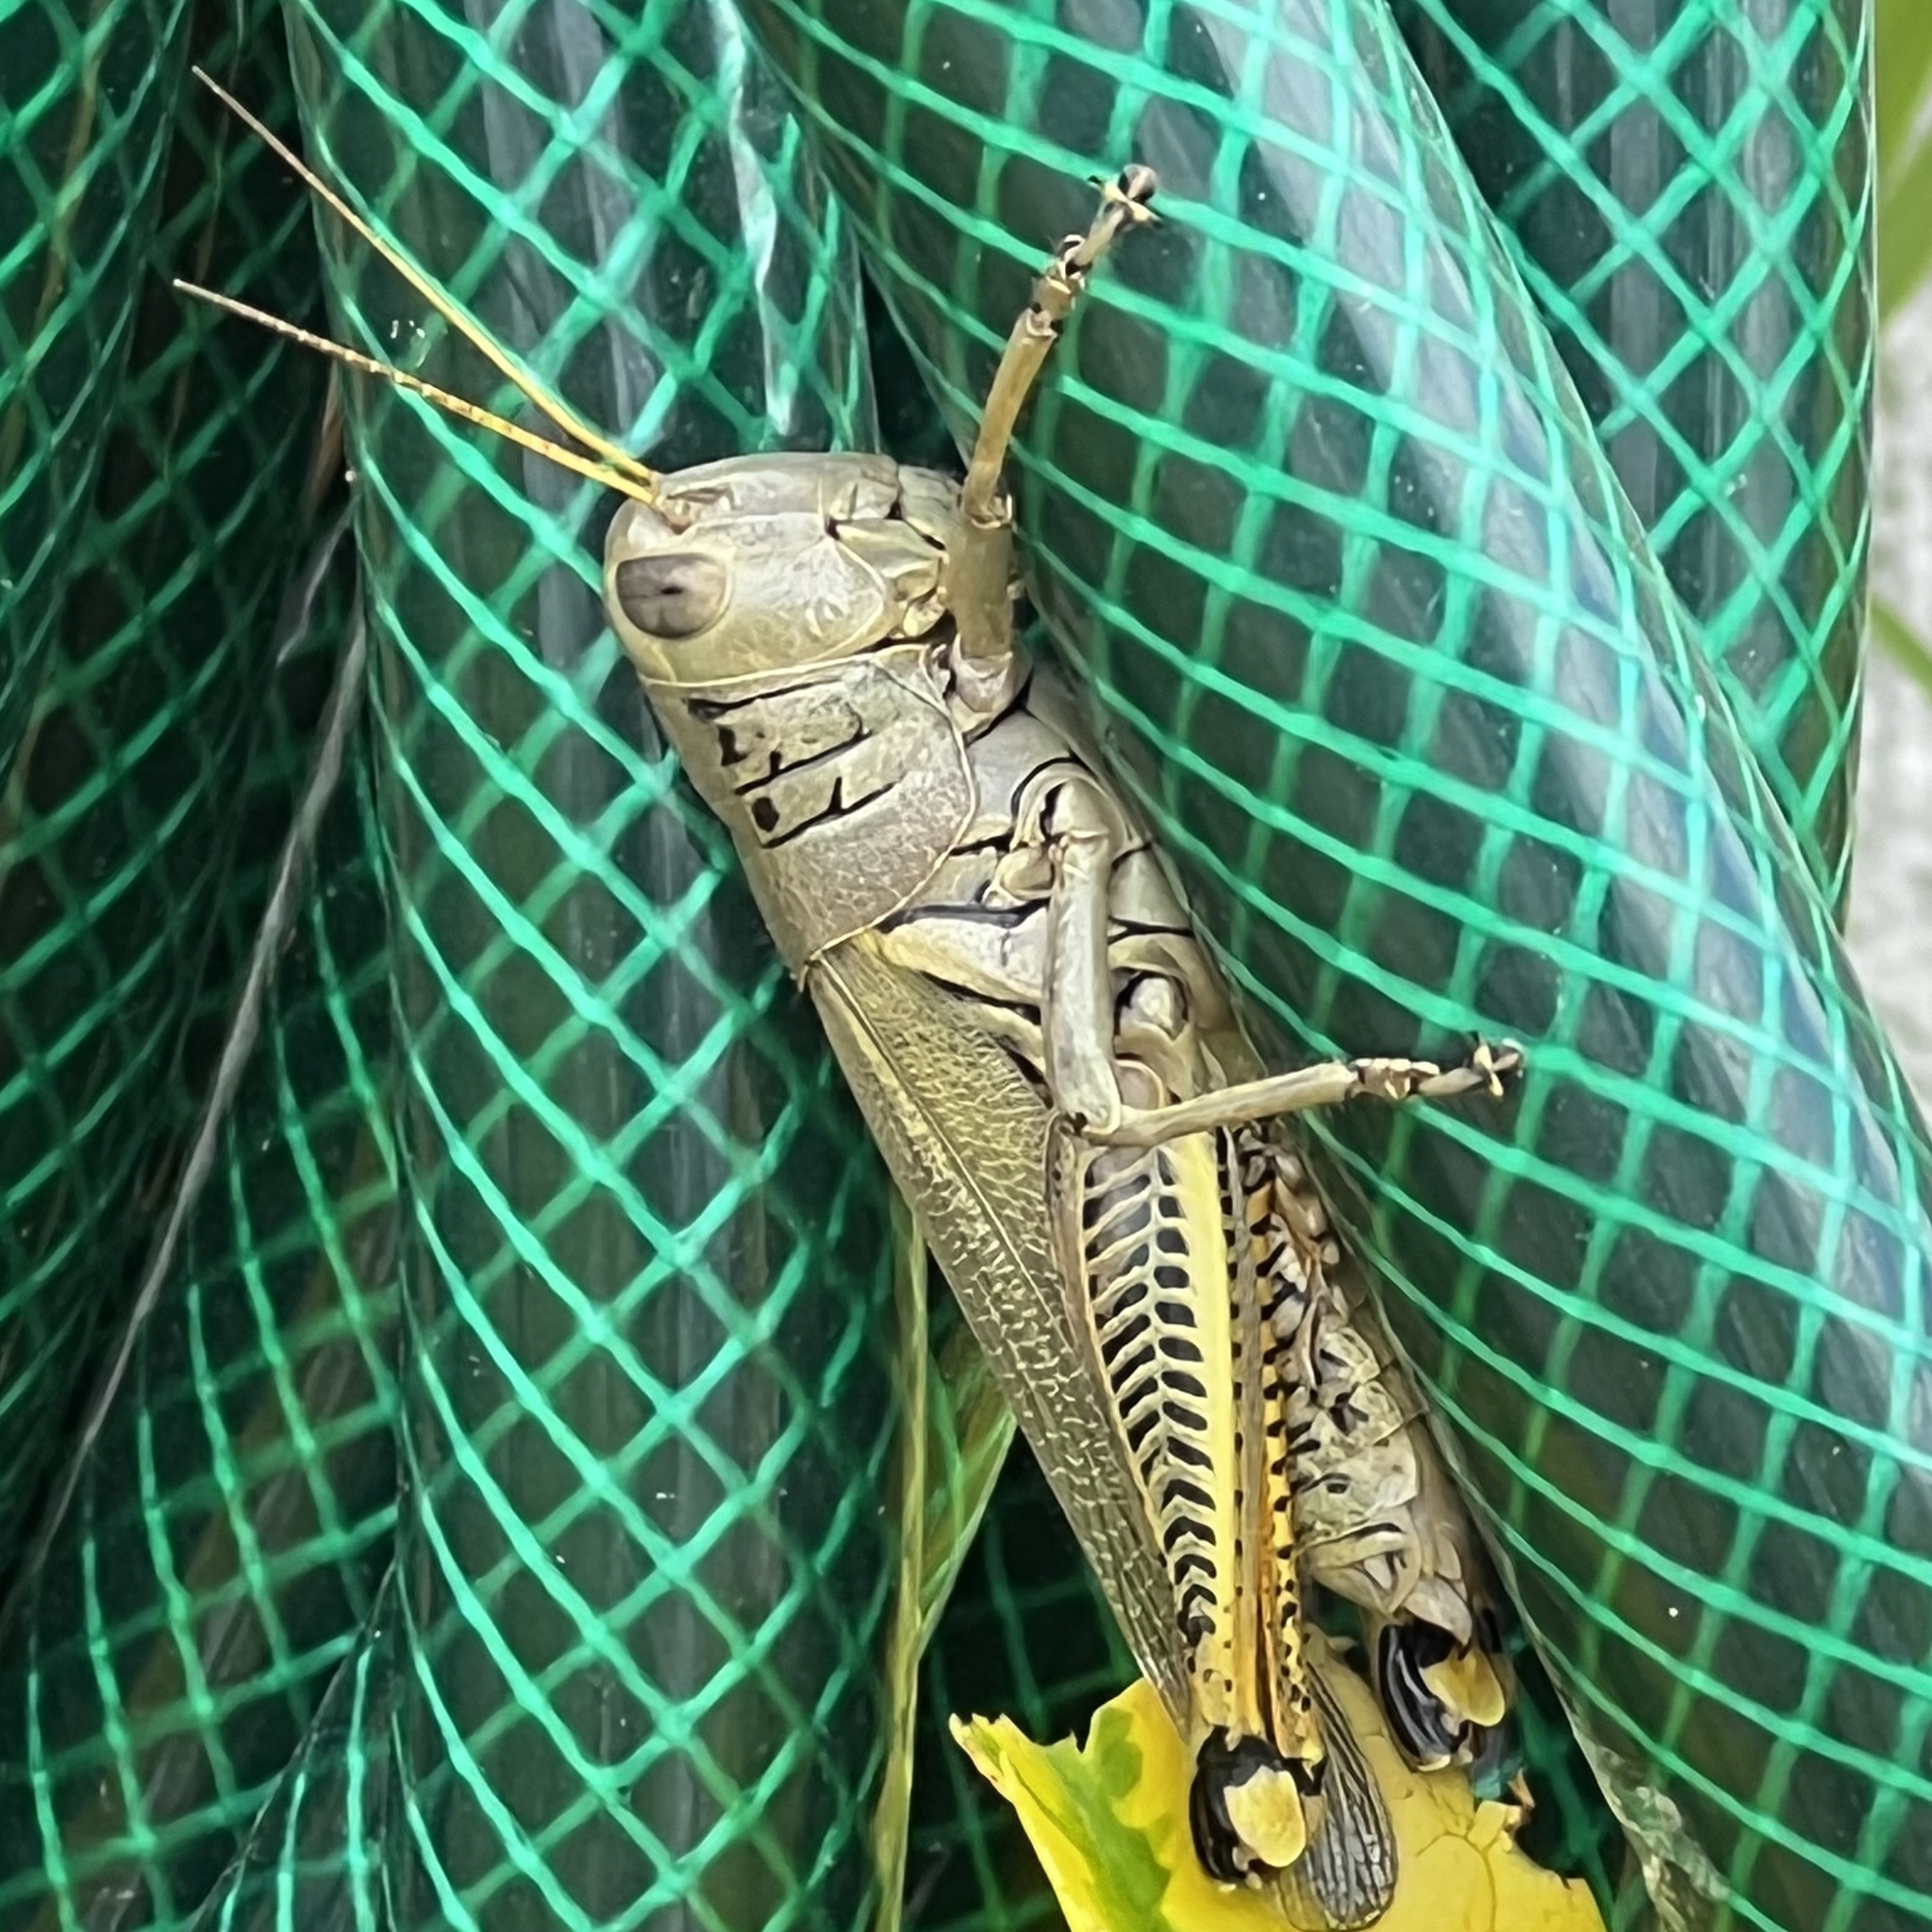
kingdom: Animalia
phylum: Arthropoda
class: Insecta
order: Orthoptera
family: Acrididae
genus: Melanoplus
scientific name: Melanoplus differentialis
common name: Differential grasshopper
